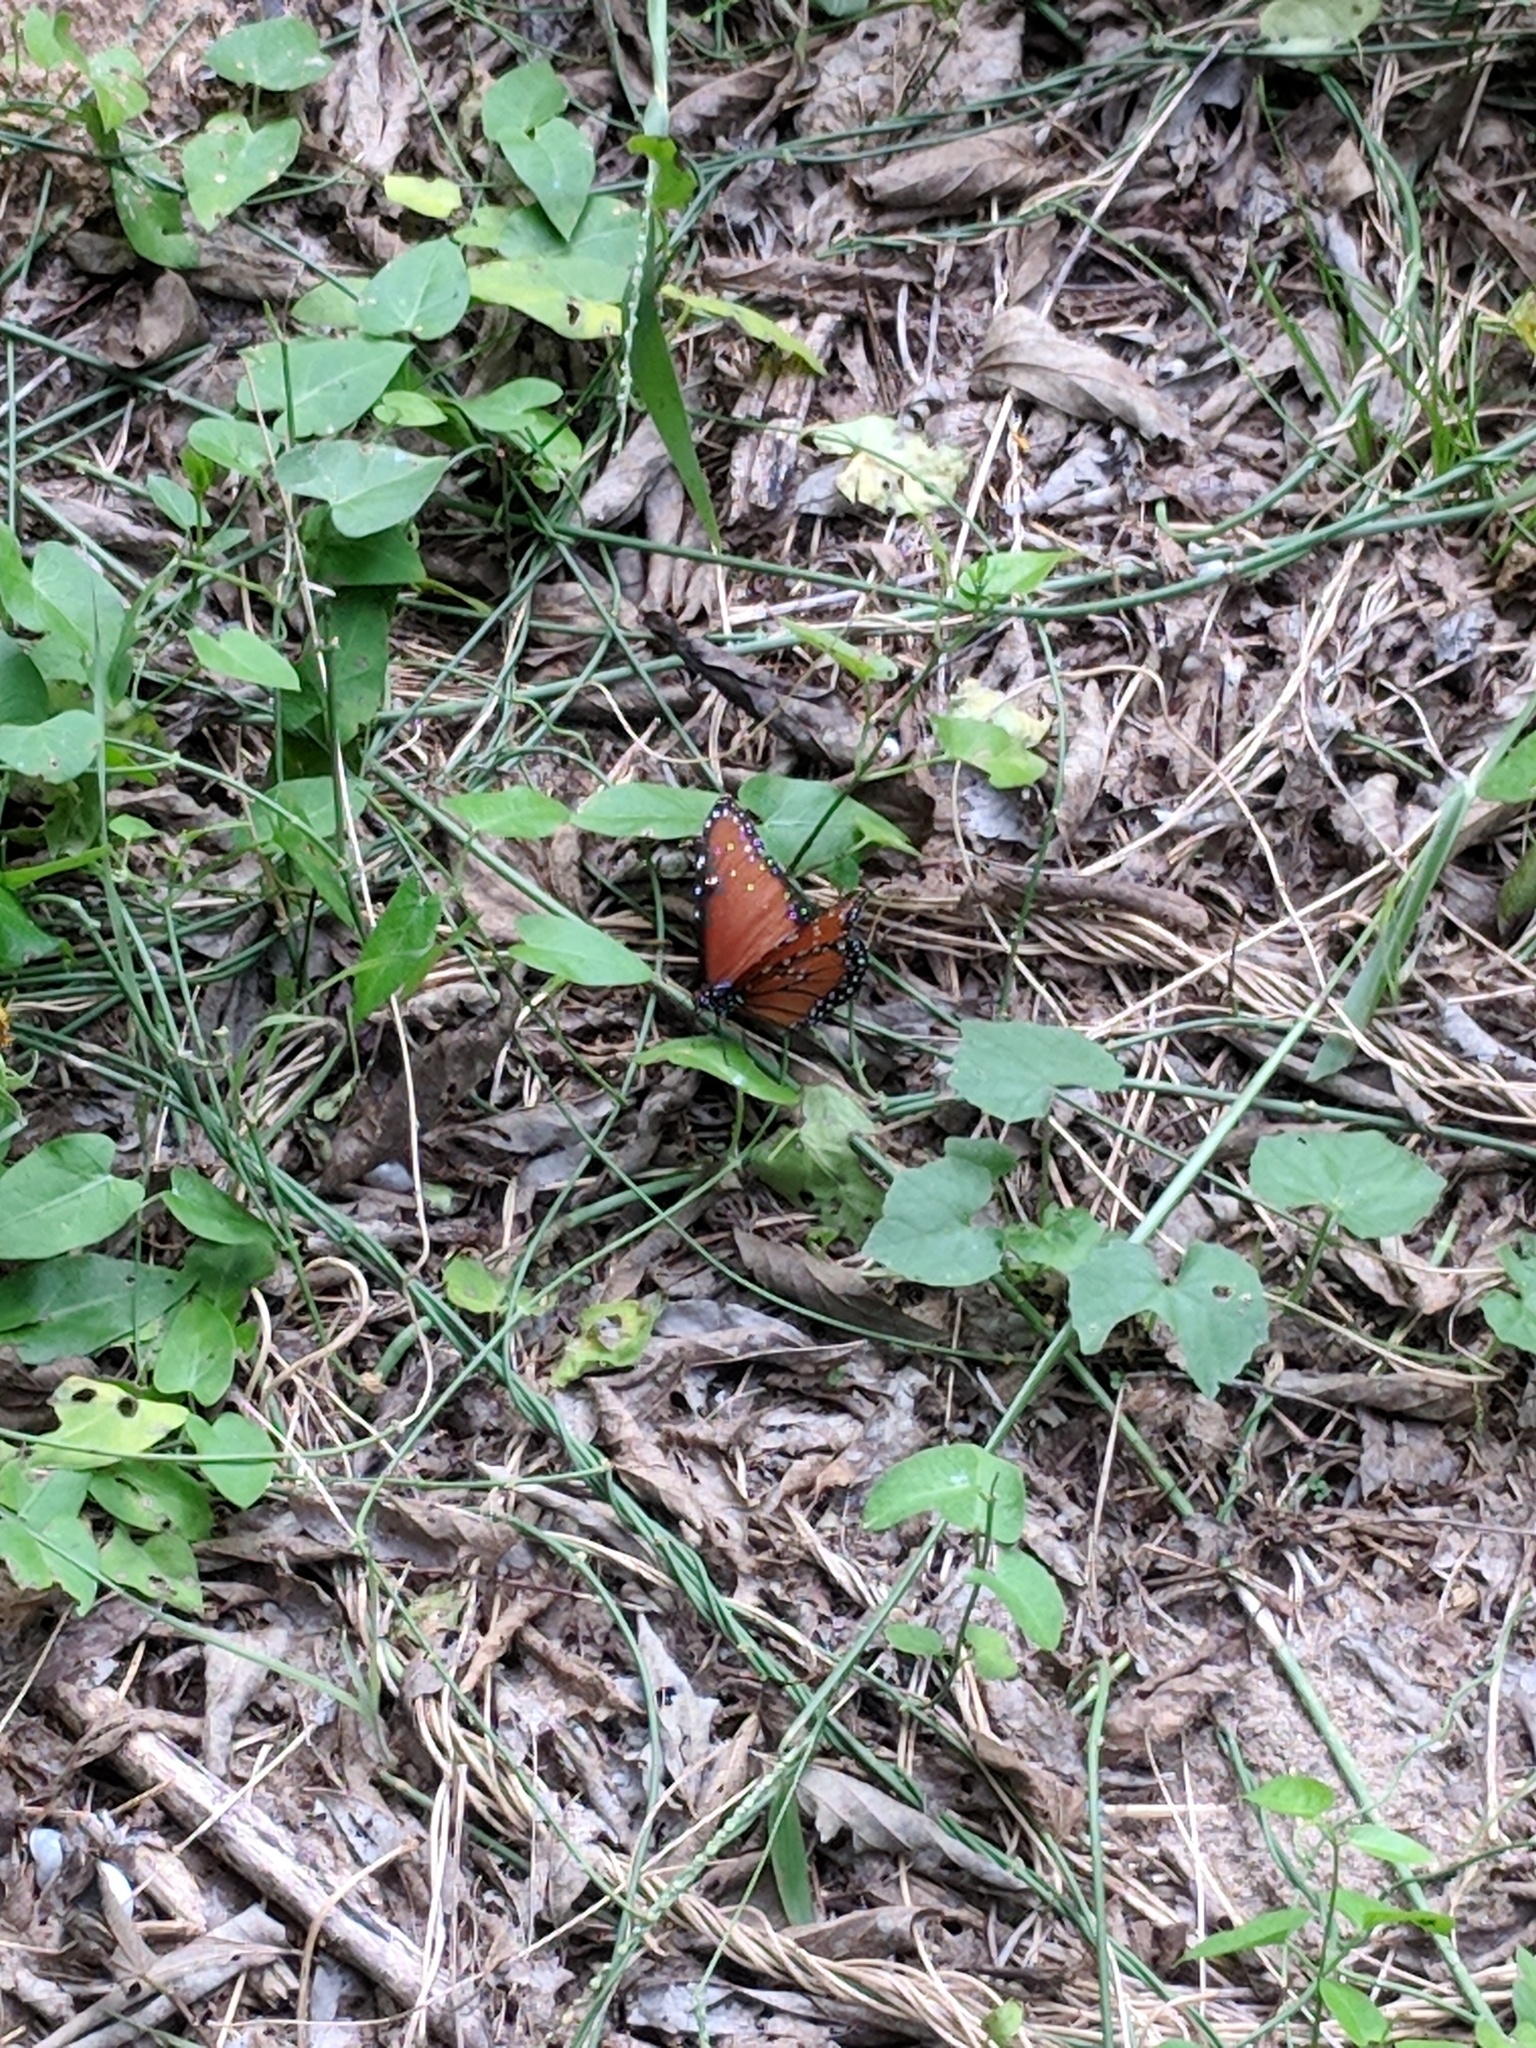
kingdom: Animalia
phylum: Arthropoda
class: Insecta
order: Lepidoptera
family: Nymphalidae
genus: Danaus
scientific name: Danaus gilippus
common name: Queen
